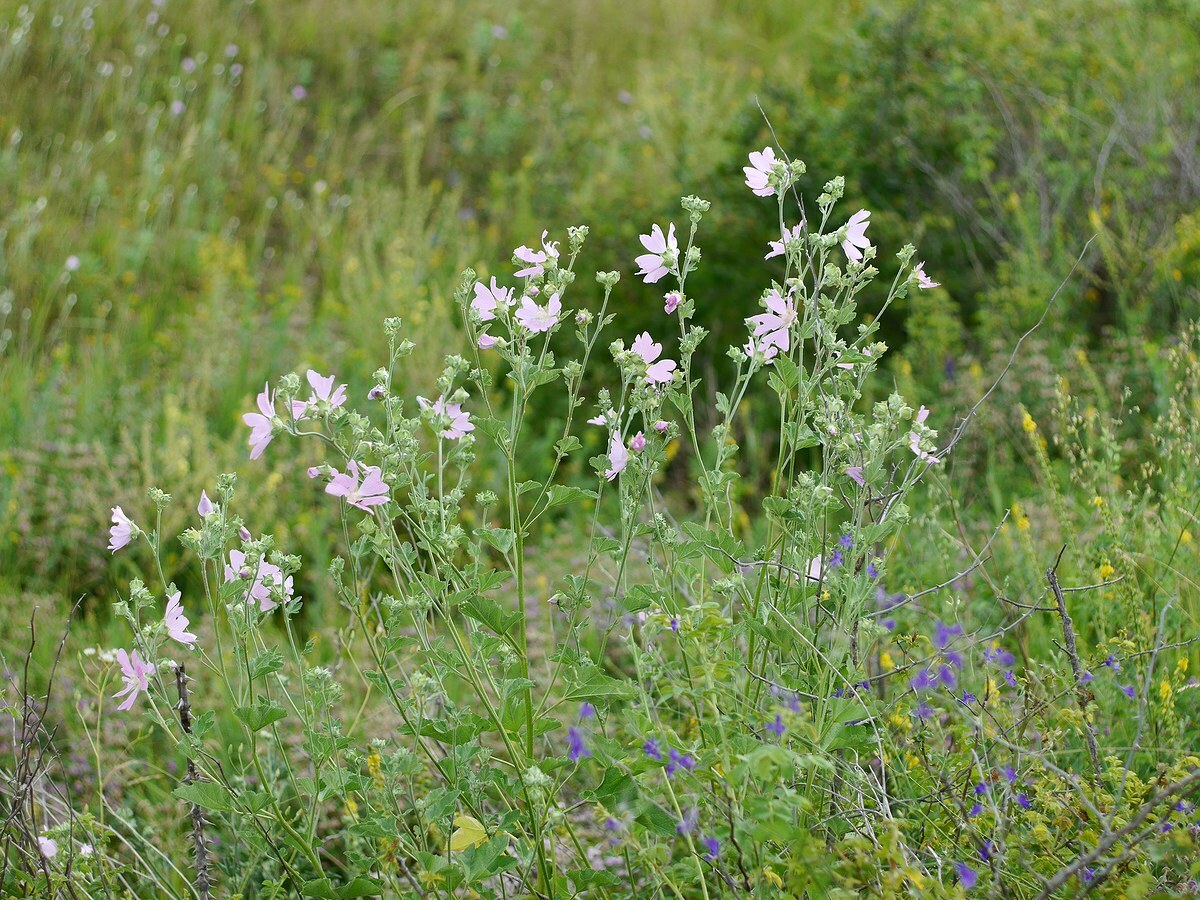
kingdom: Plantae
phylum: Tracheophyta
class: Magnoliopsida
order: Malvales
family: Malvaceae
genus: Malva
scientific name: Malva thuringiaca
